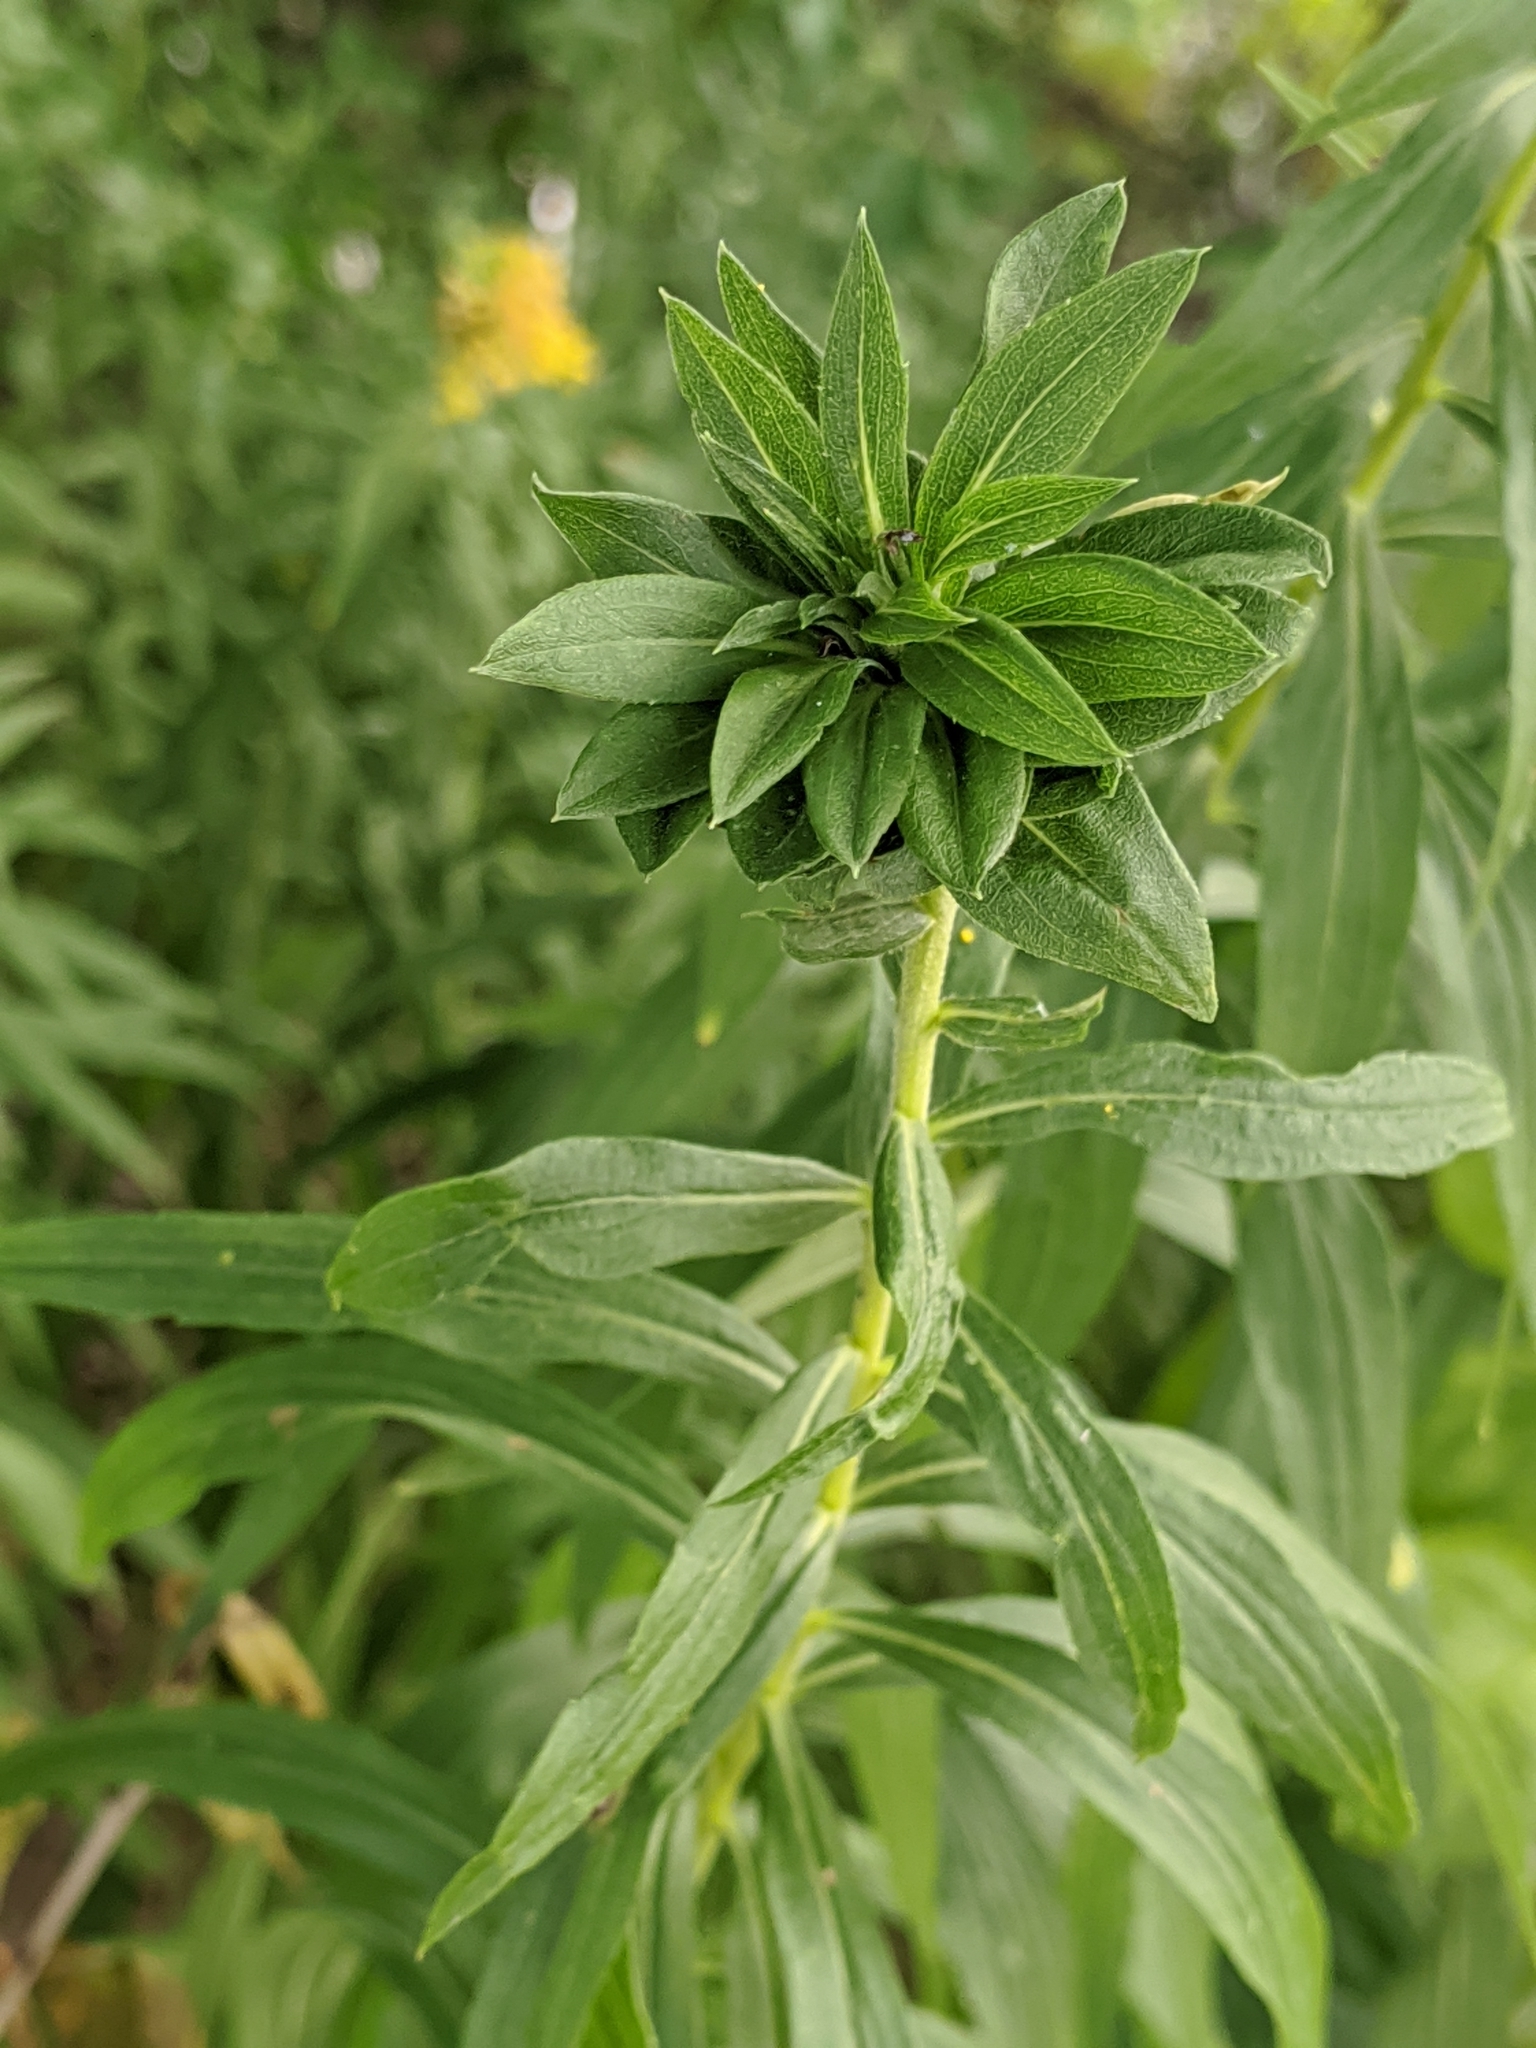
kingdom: Animalia
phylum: Arthropoda
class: Insecta
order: Diptera
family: Cecidomyiidae
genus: Rhopalomyia
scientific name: Rhopalomyia solidaginis
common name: Goldenrod bunch gall midge
